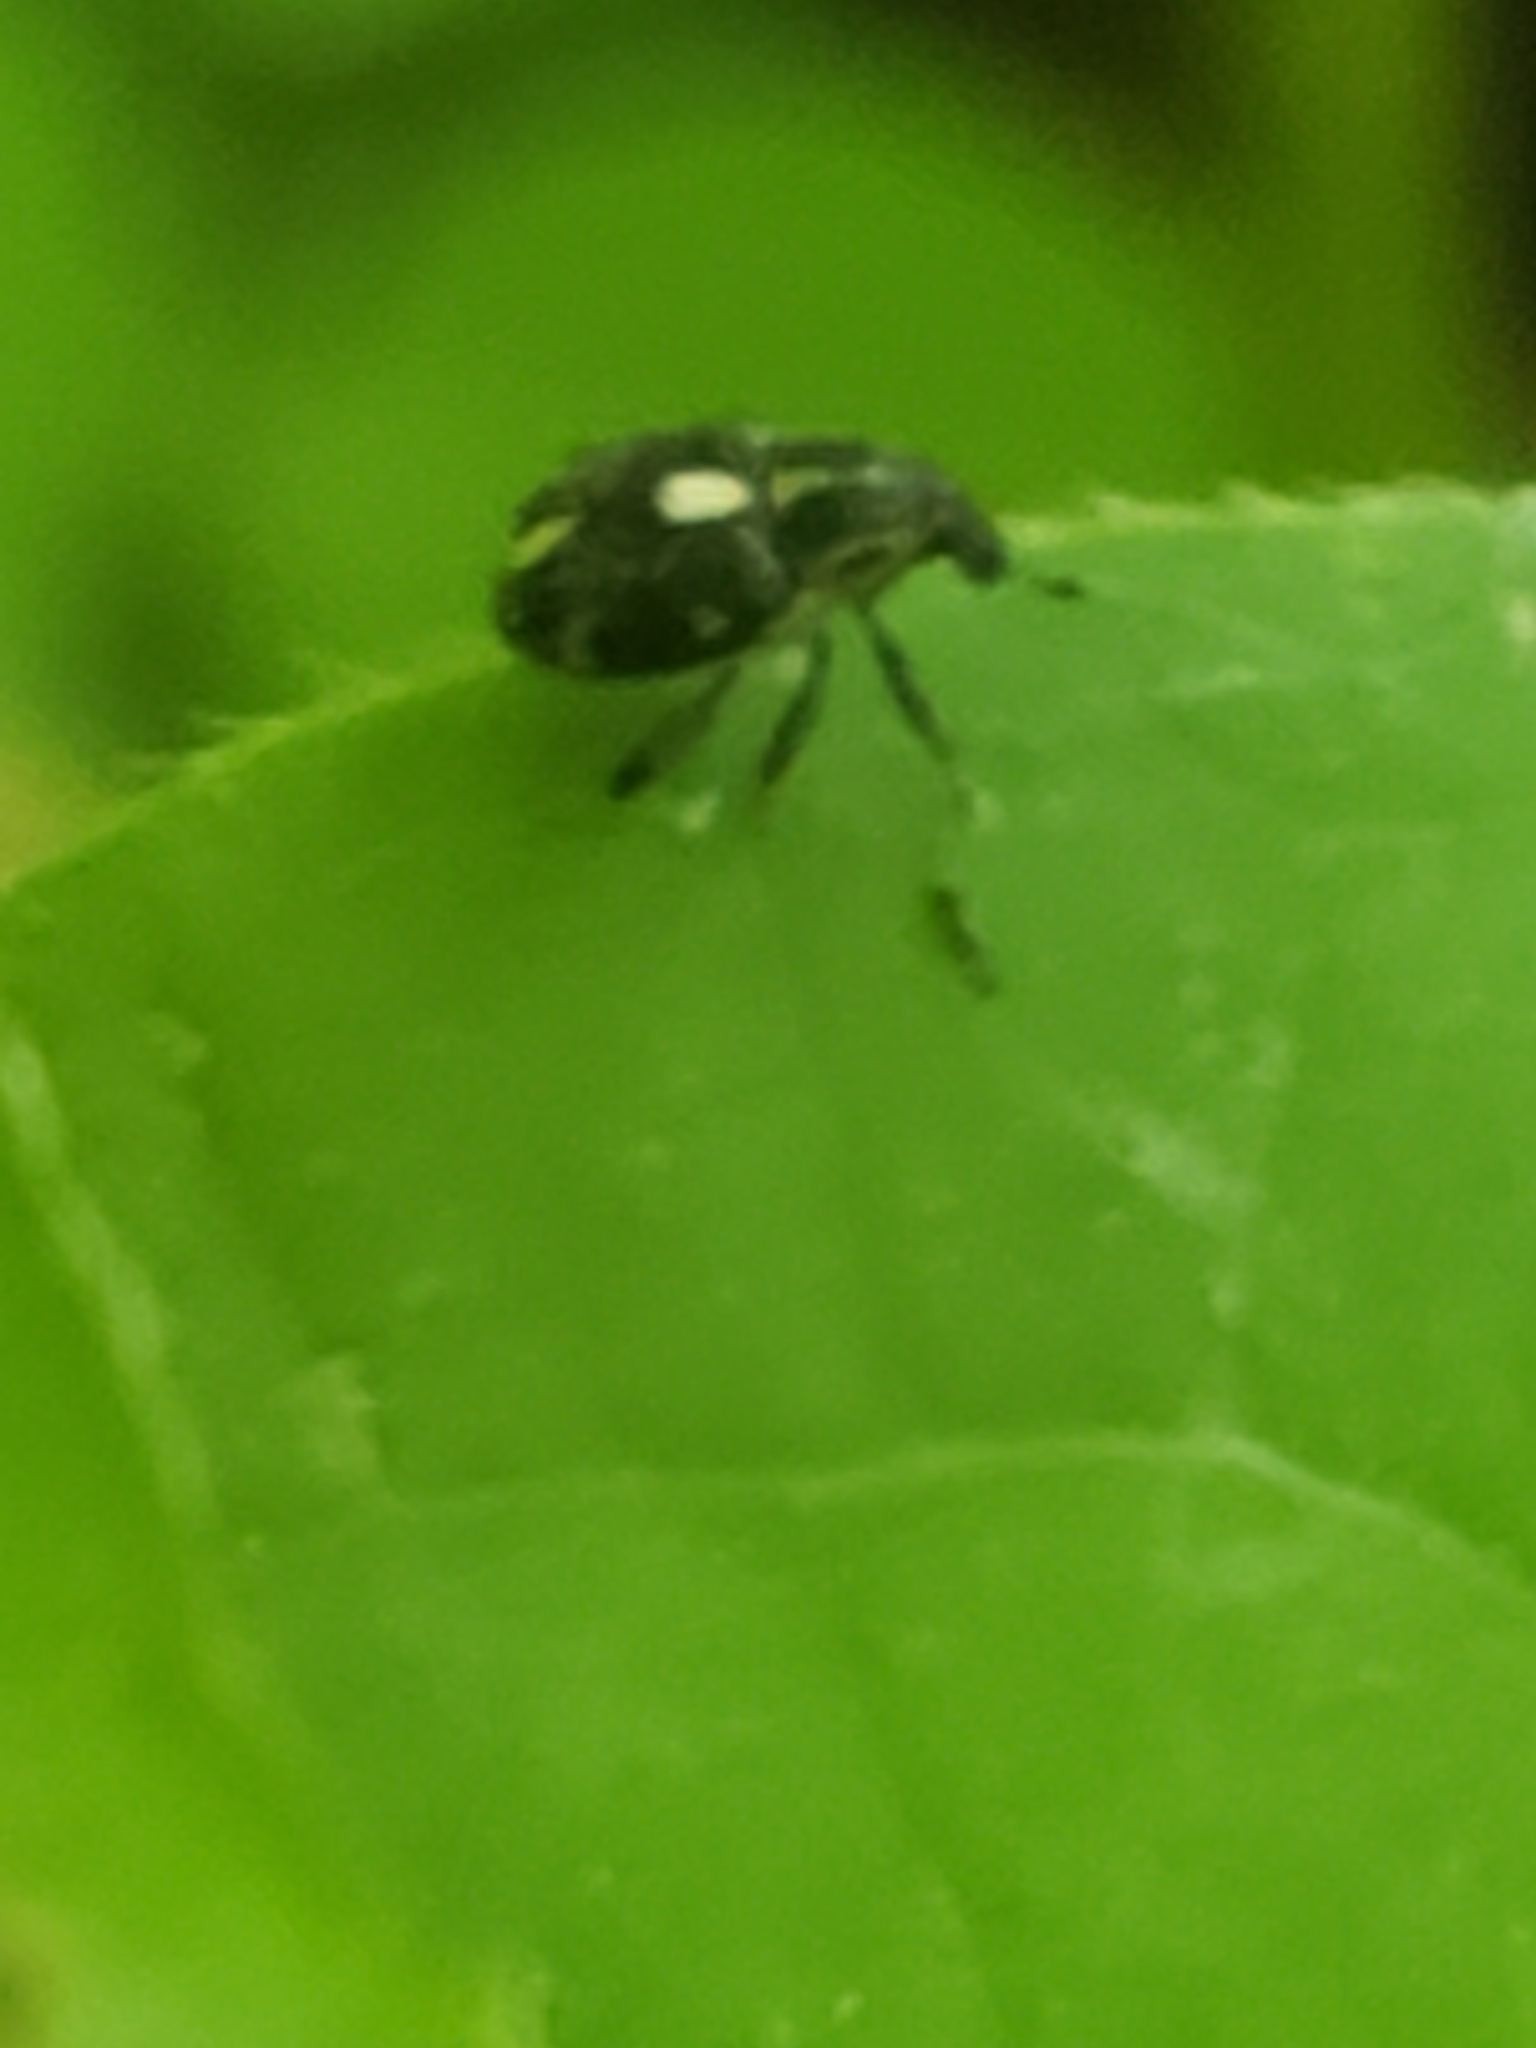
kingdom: Animalia
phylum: Arthropoda
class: Insecta
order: Coleoptera
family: Curculionidae
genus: Rhinoncus
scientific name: Rhinoncus longulus
